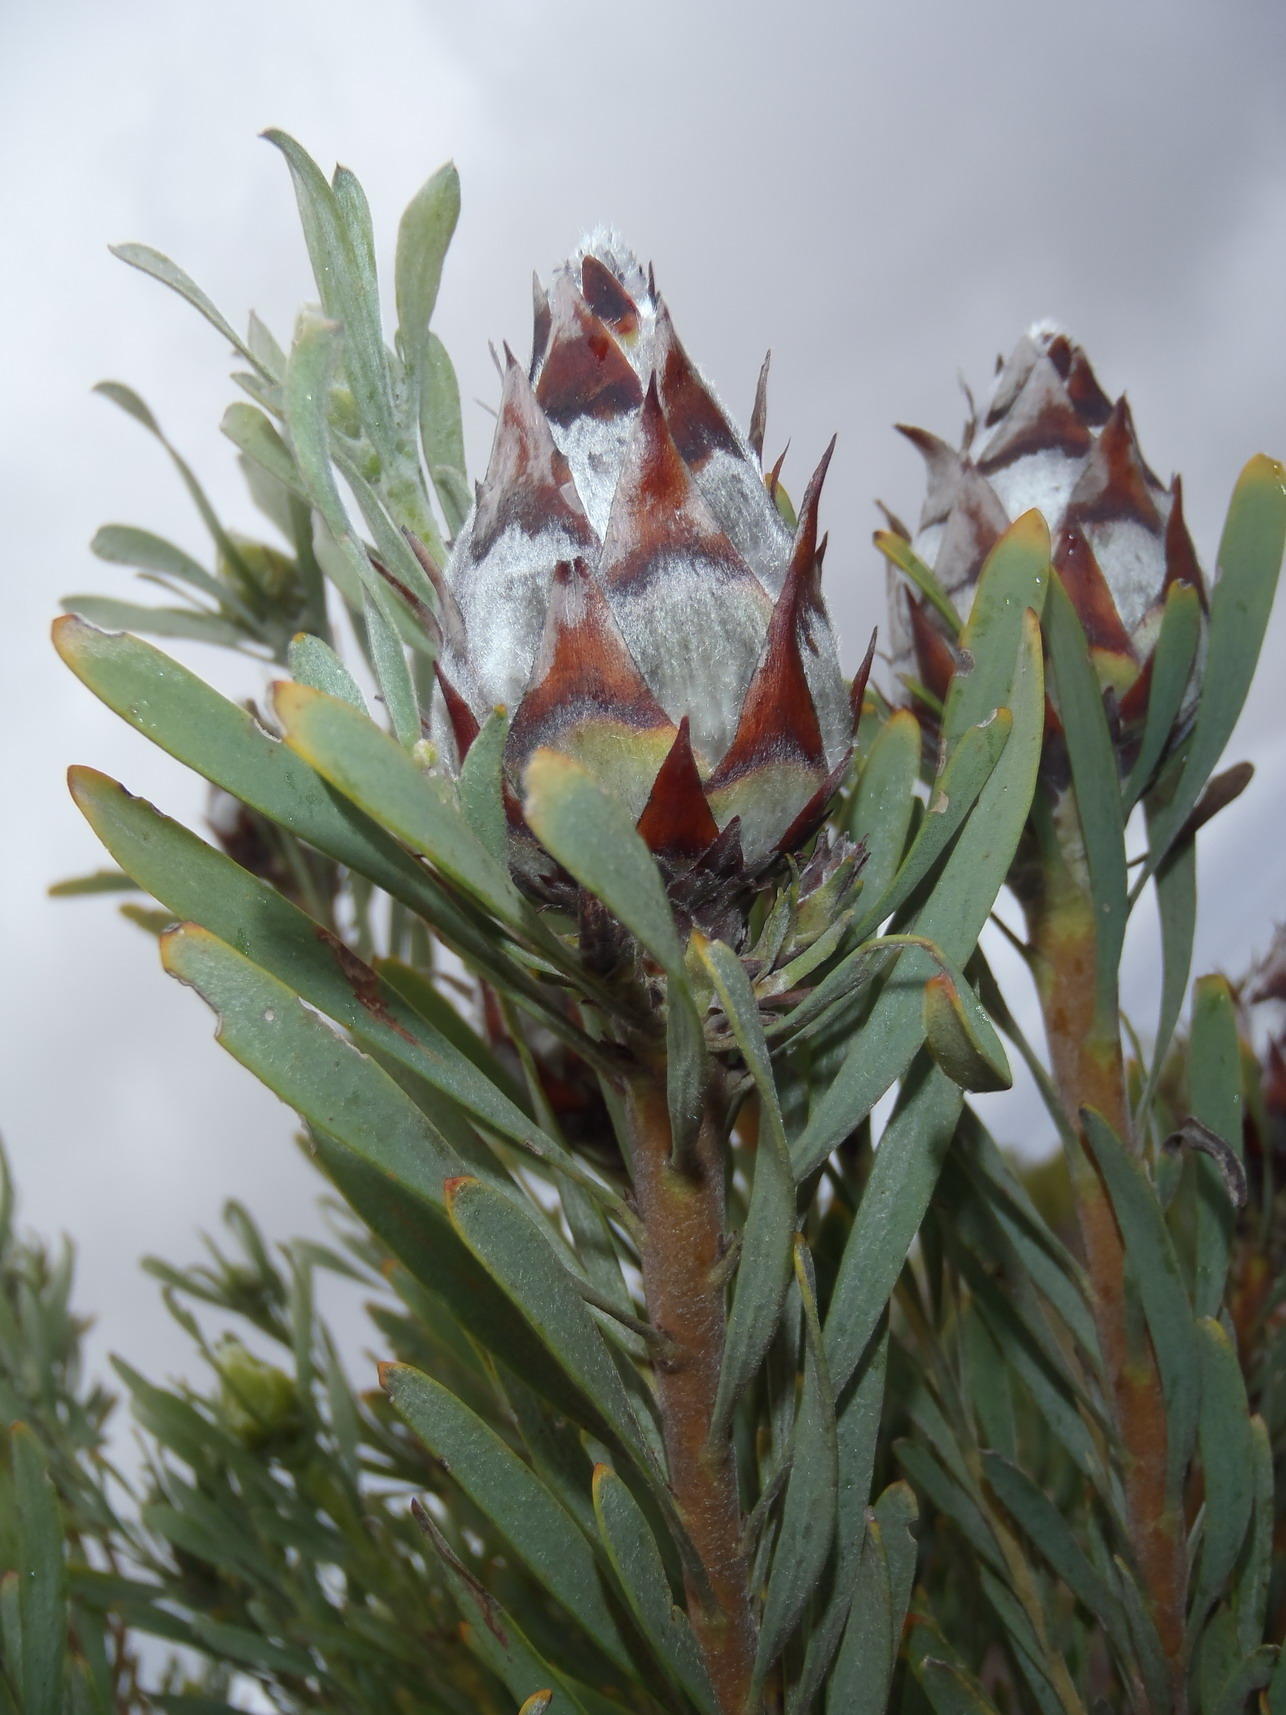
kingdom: Plantae
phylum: Tracheophyta
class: Magnoliopsida
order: Proteales
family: Proteaceae
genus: Leucadendron
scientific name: Leucadendron rubrum
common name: Spinning top
